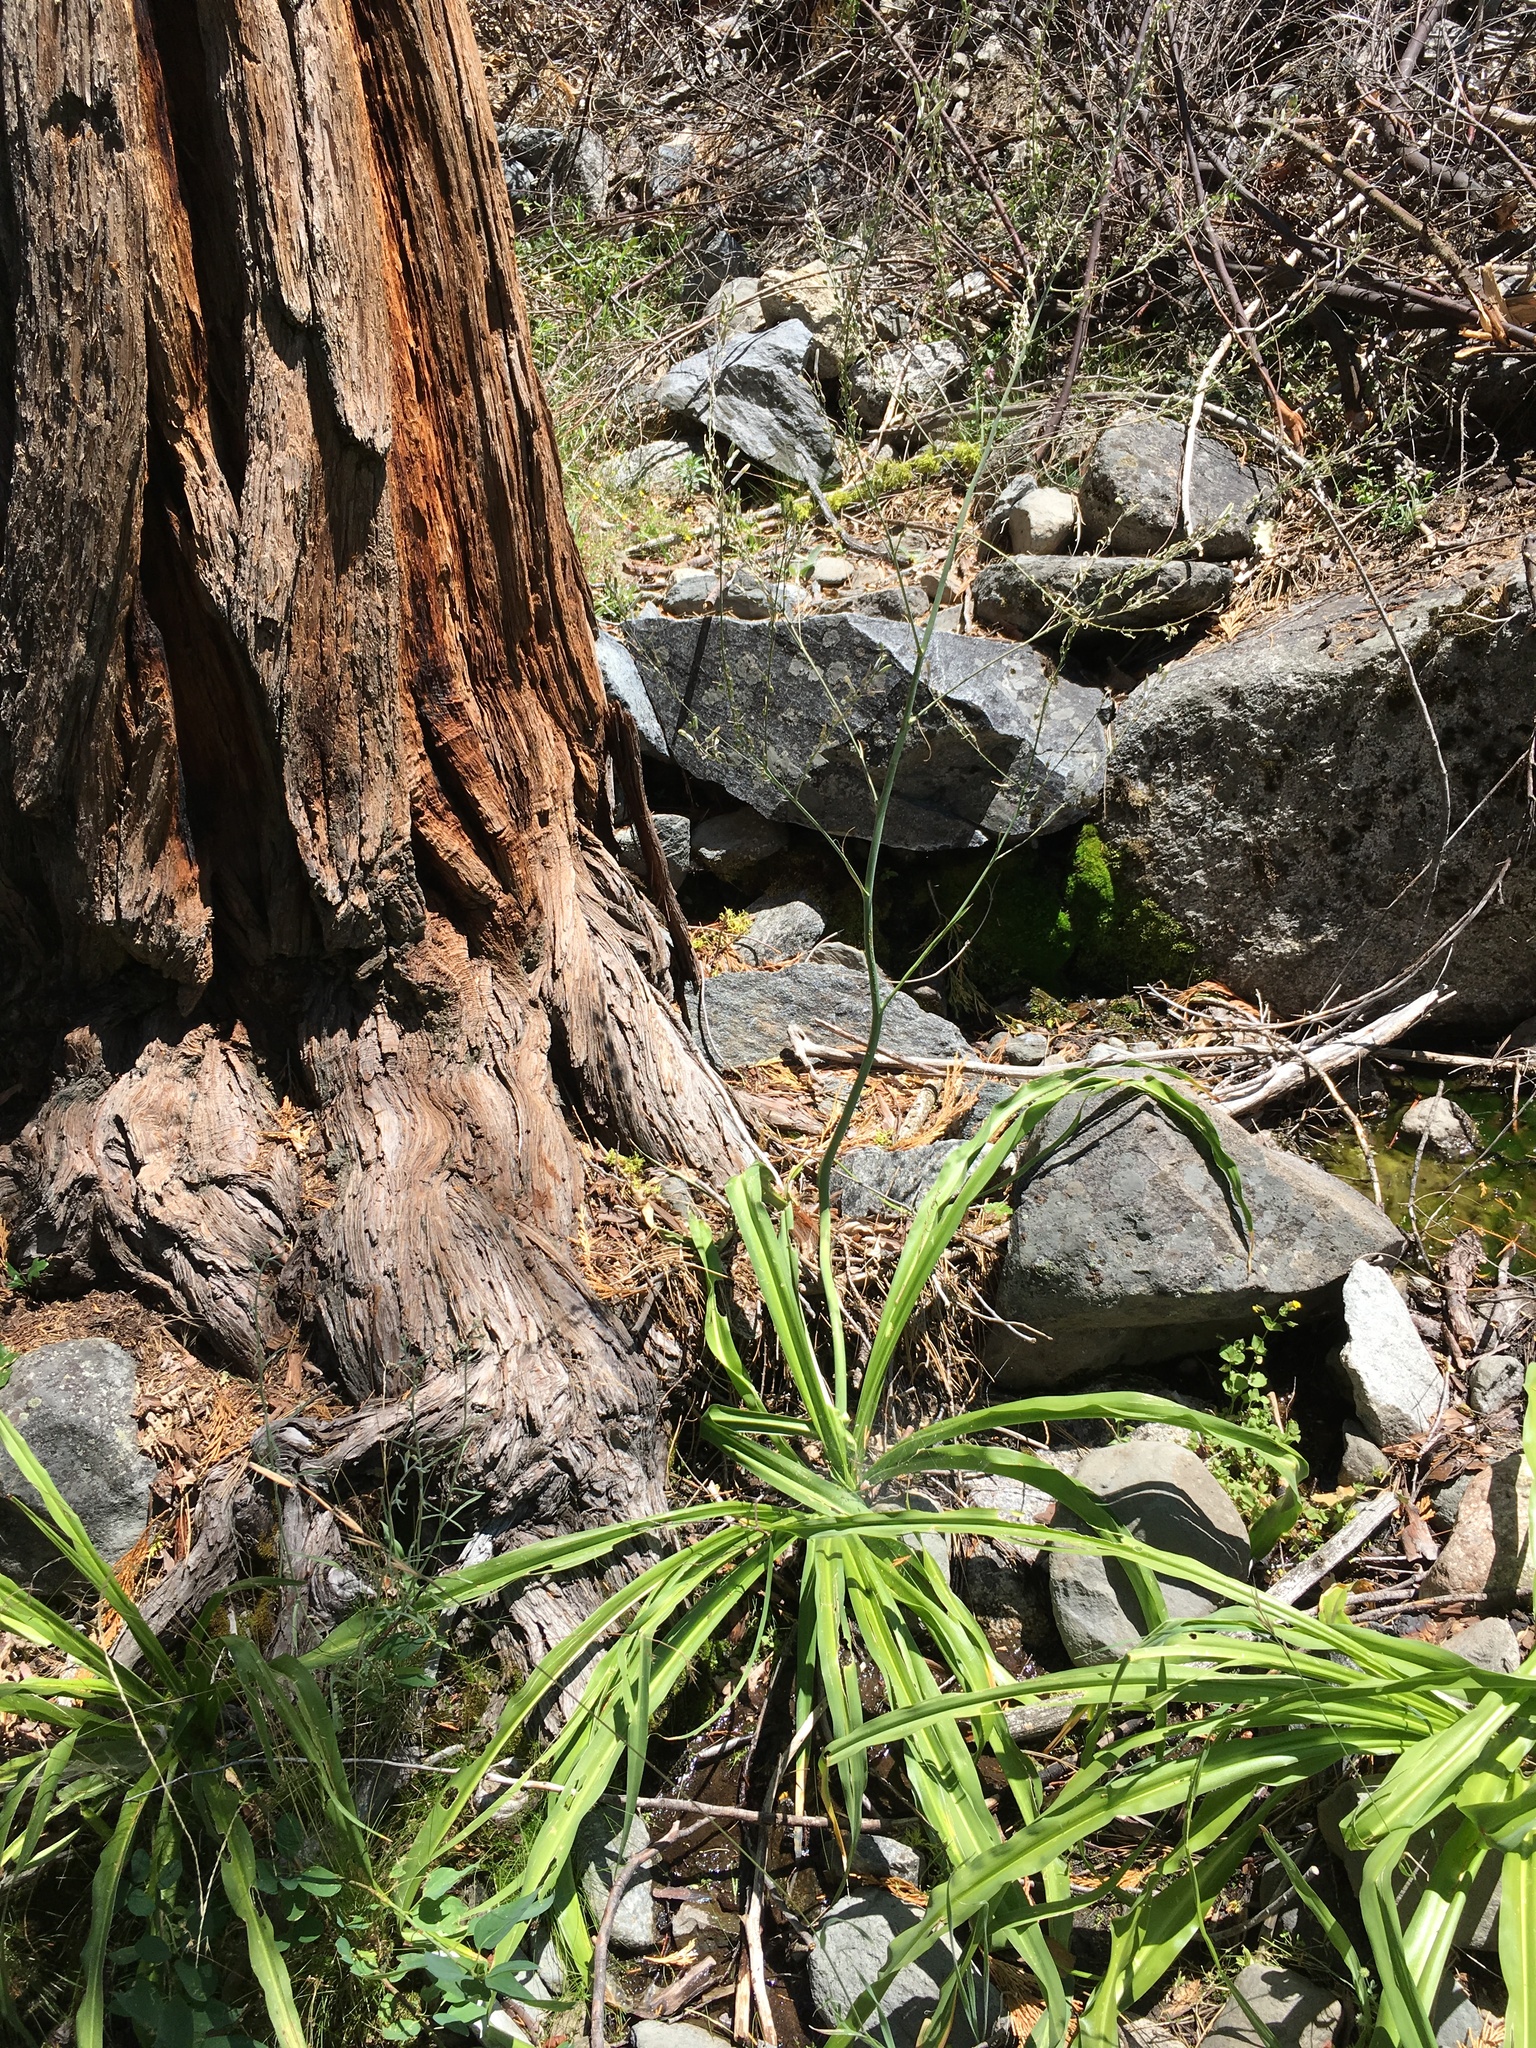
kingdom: Plantae
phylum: Tracheophyta
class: Liliopsida
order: Asparagales
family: Asparagaceae
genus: Chlorogalum
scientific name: Chlorogalum pomeridianum
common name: Amole
